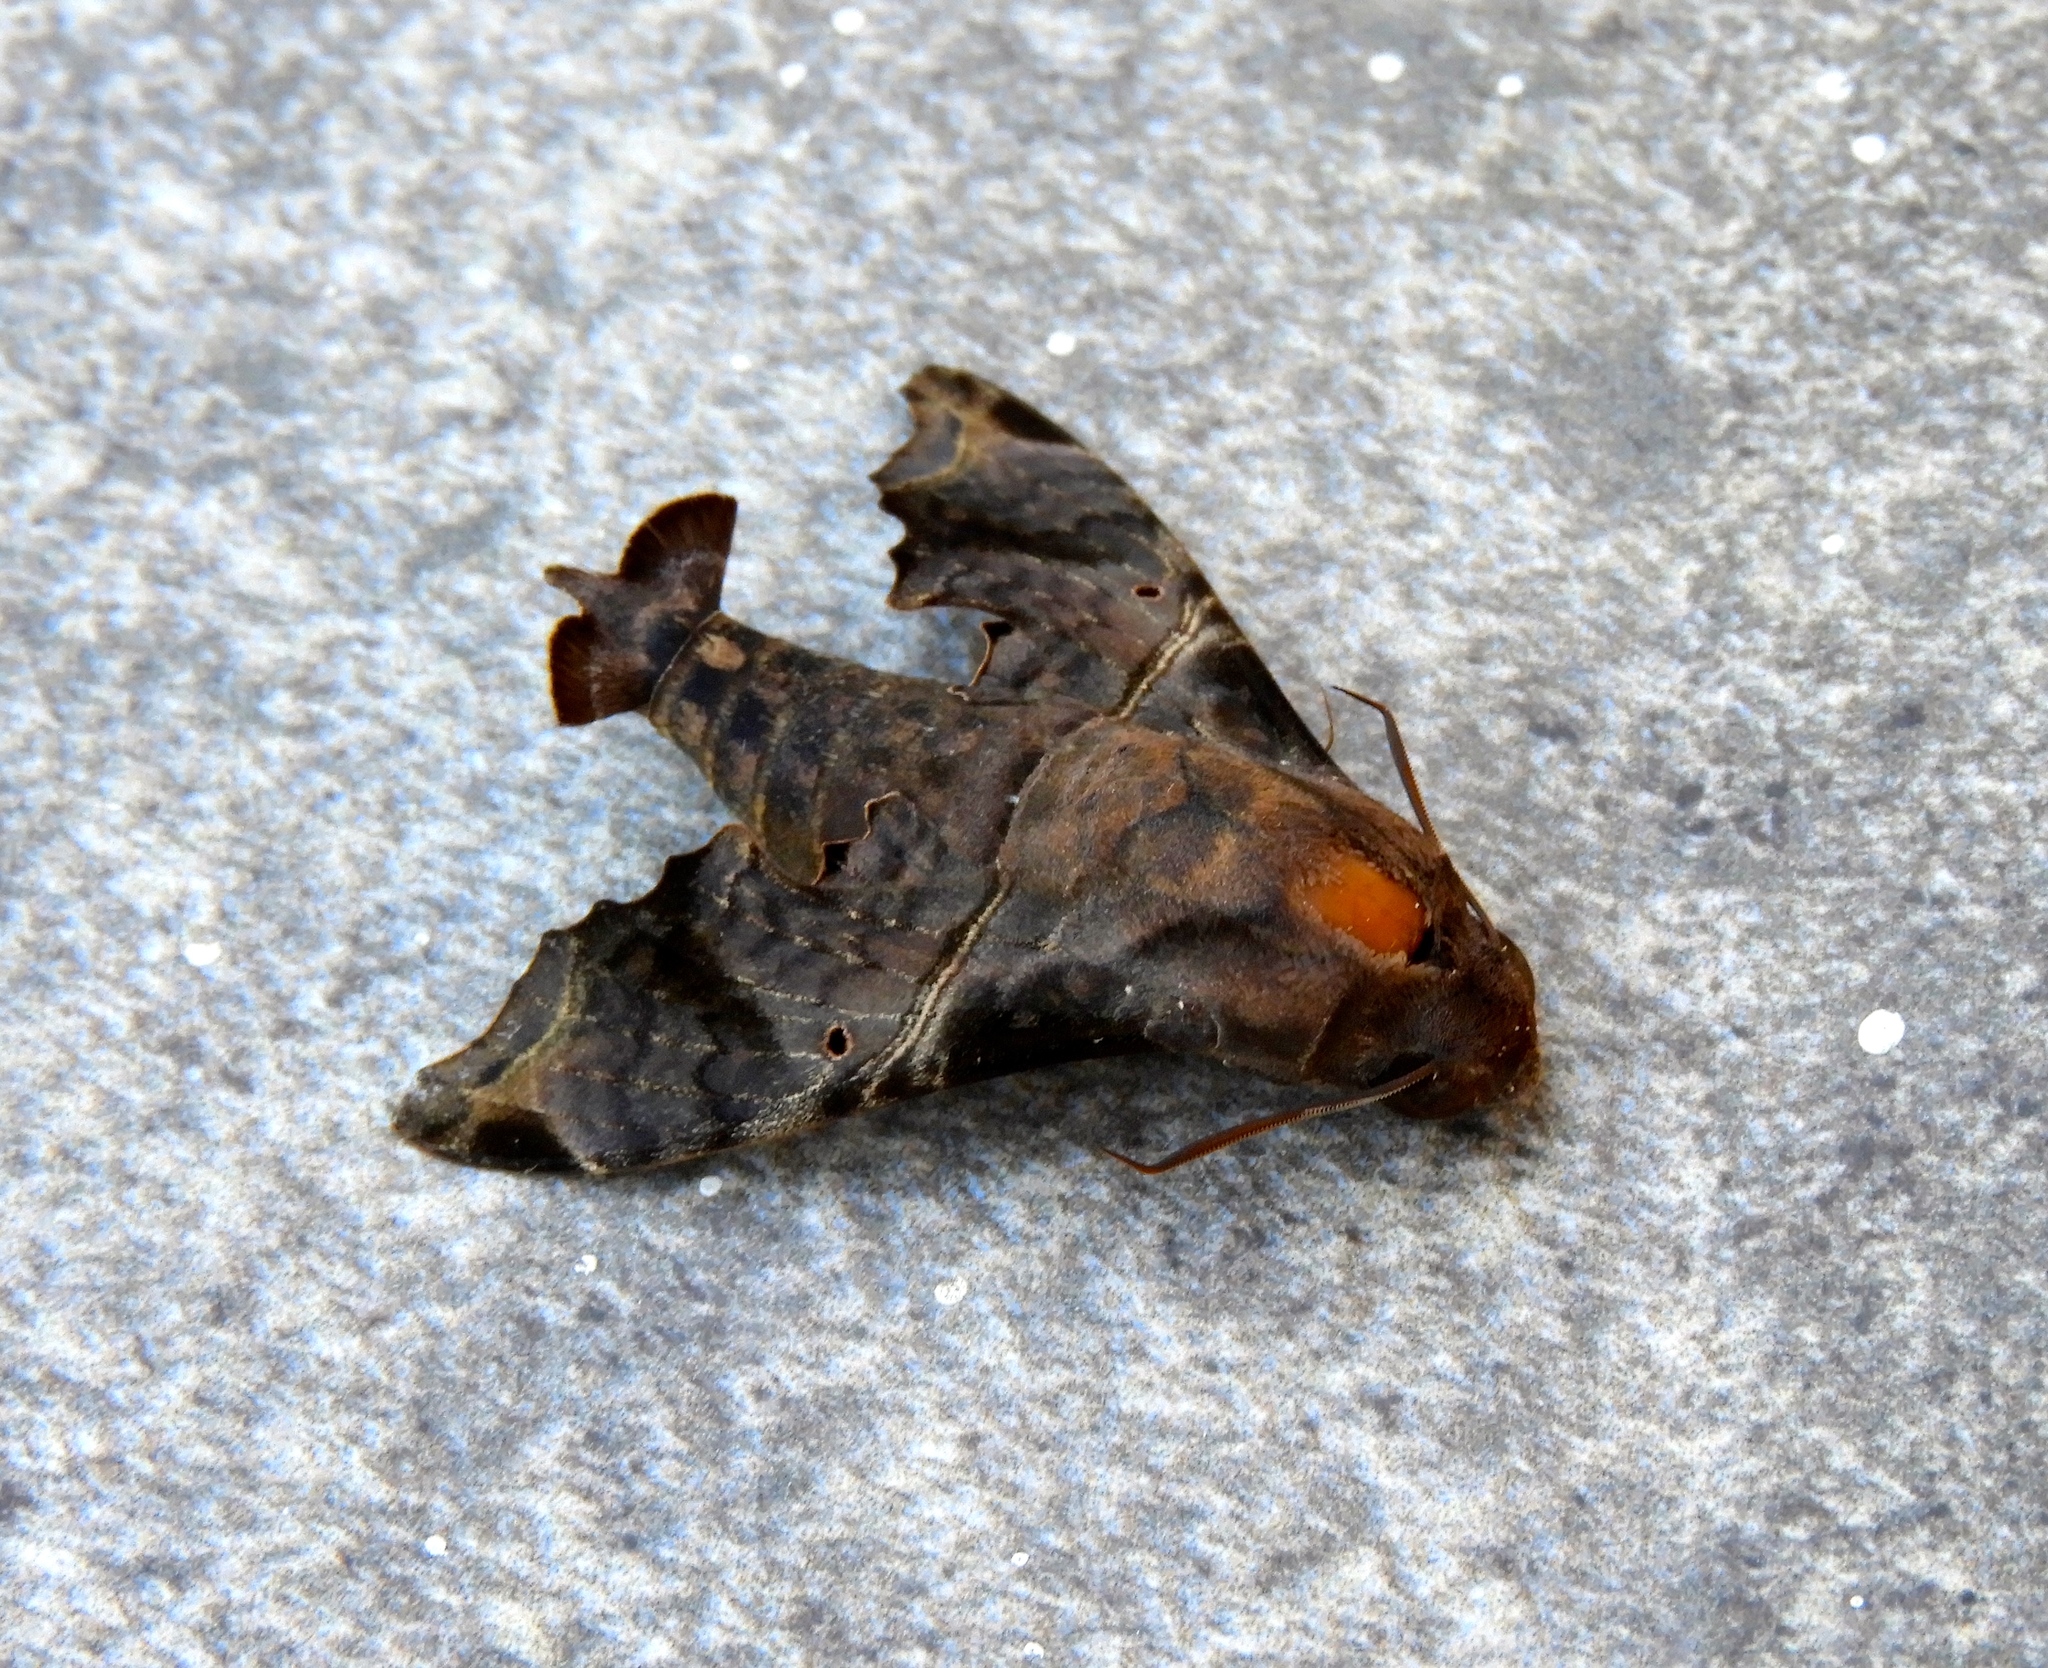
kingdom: Animalia
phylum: Arthropoda
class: Insecta
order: Lepidoptera
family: Sphingidae
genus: Enyo
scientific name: Enyo lugubris
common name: Mournful sphinx
